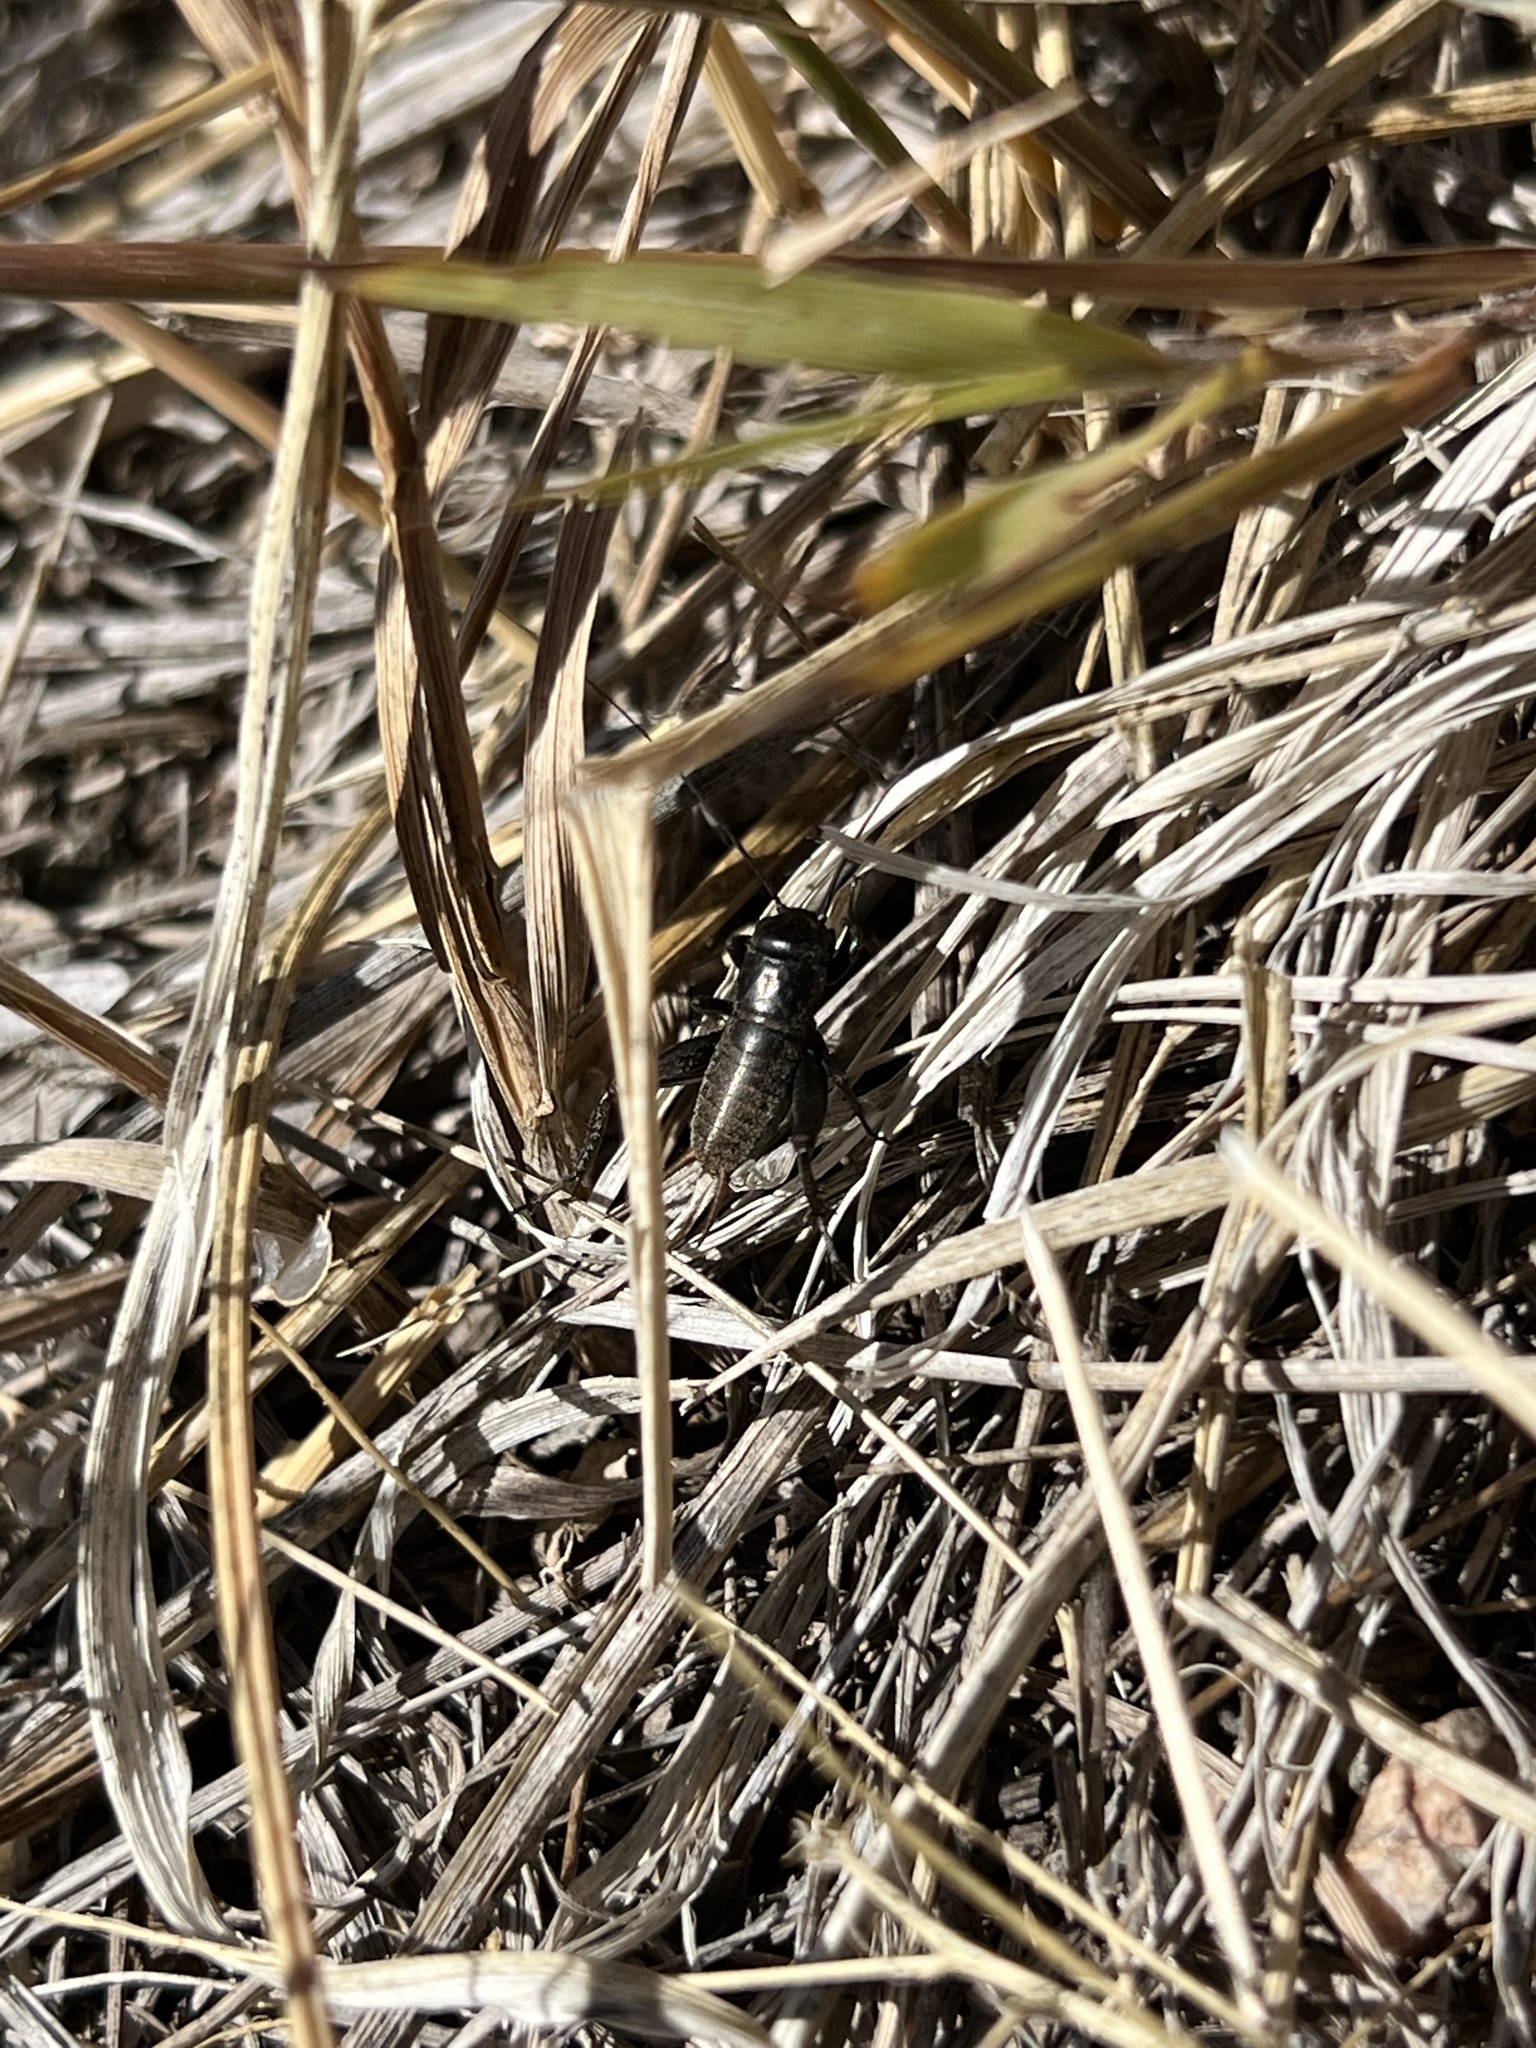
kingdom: Animalia
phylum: Arthropoda
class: Insecta
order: Orthoptera
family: Gryllidae
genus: Gryllus
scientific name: Gryllus
